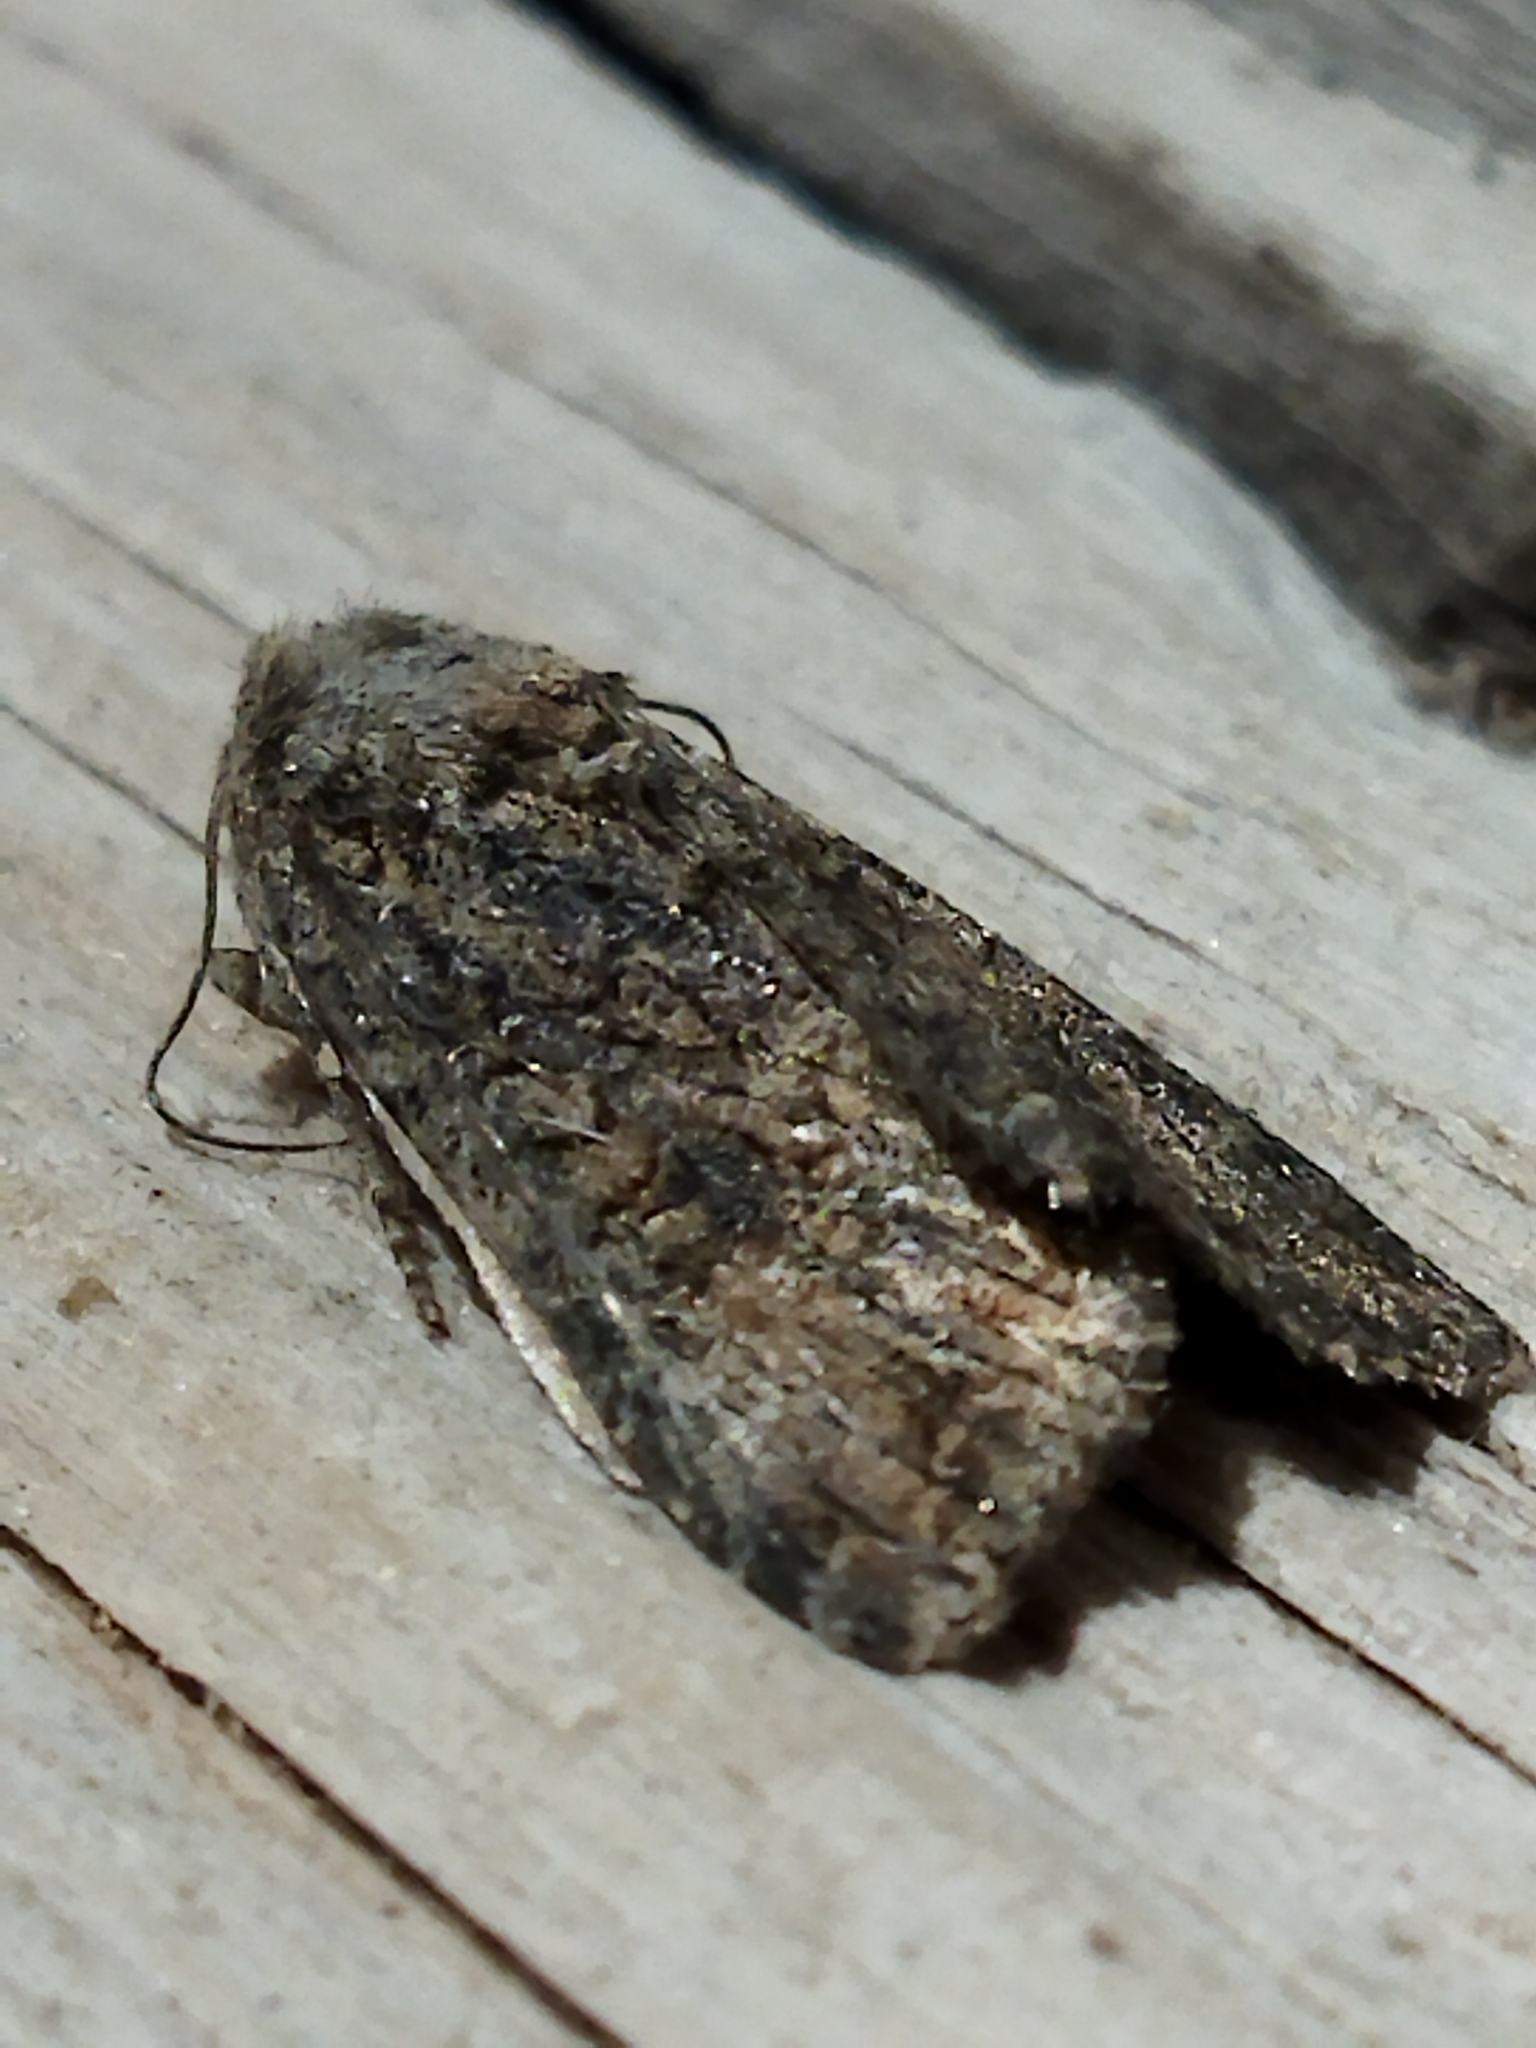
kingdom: Animalia
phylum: Arthropoda
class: Insecta
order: Lepidoptera
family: Noctuidae
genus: Anarta
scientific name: Anarta trifolii
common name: Clover cutworm moth
